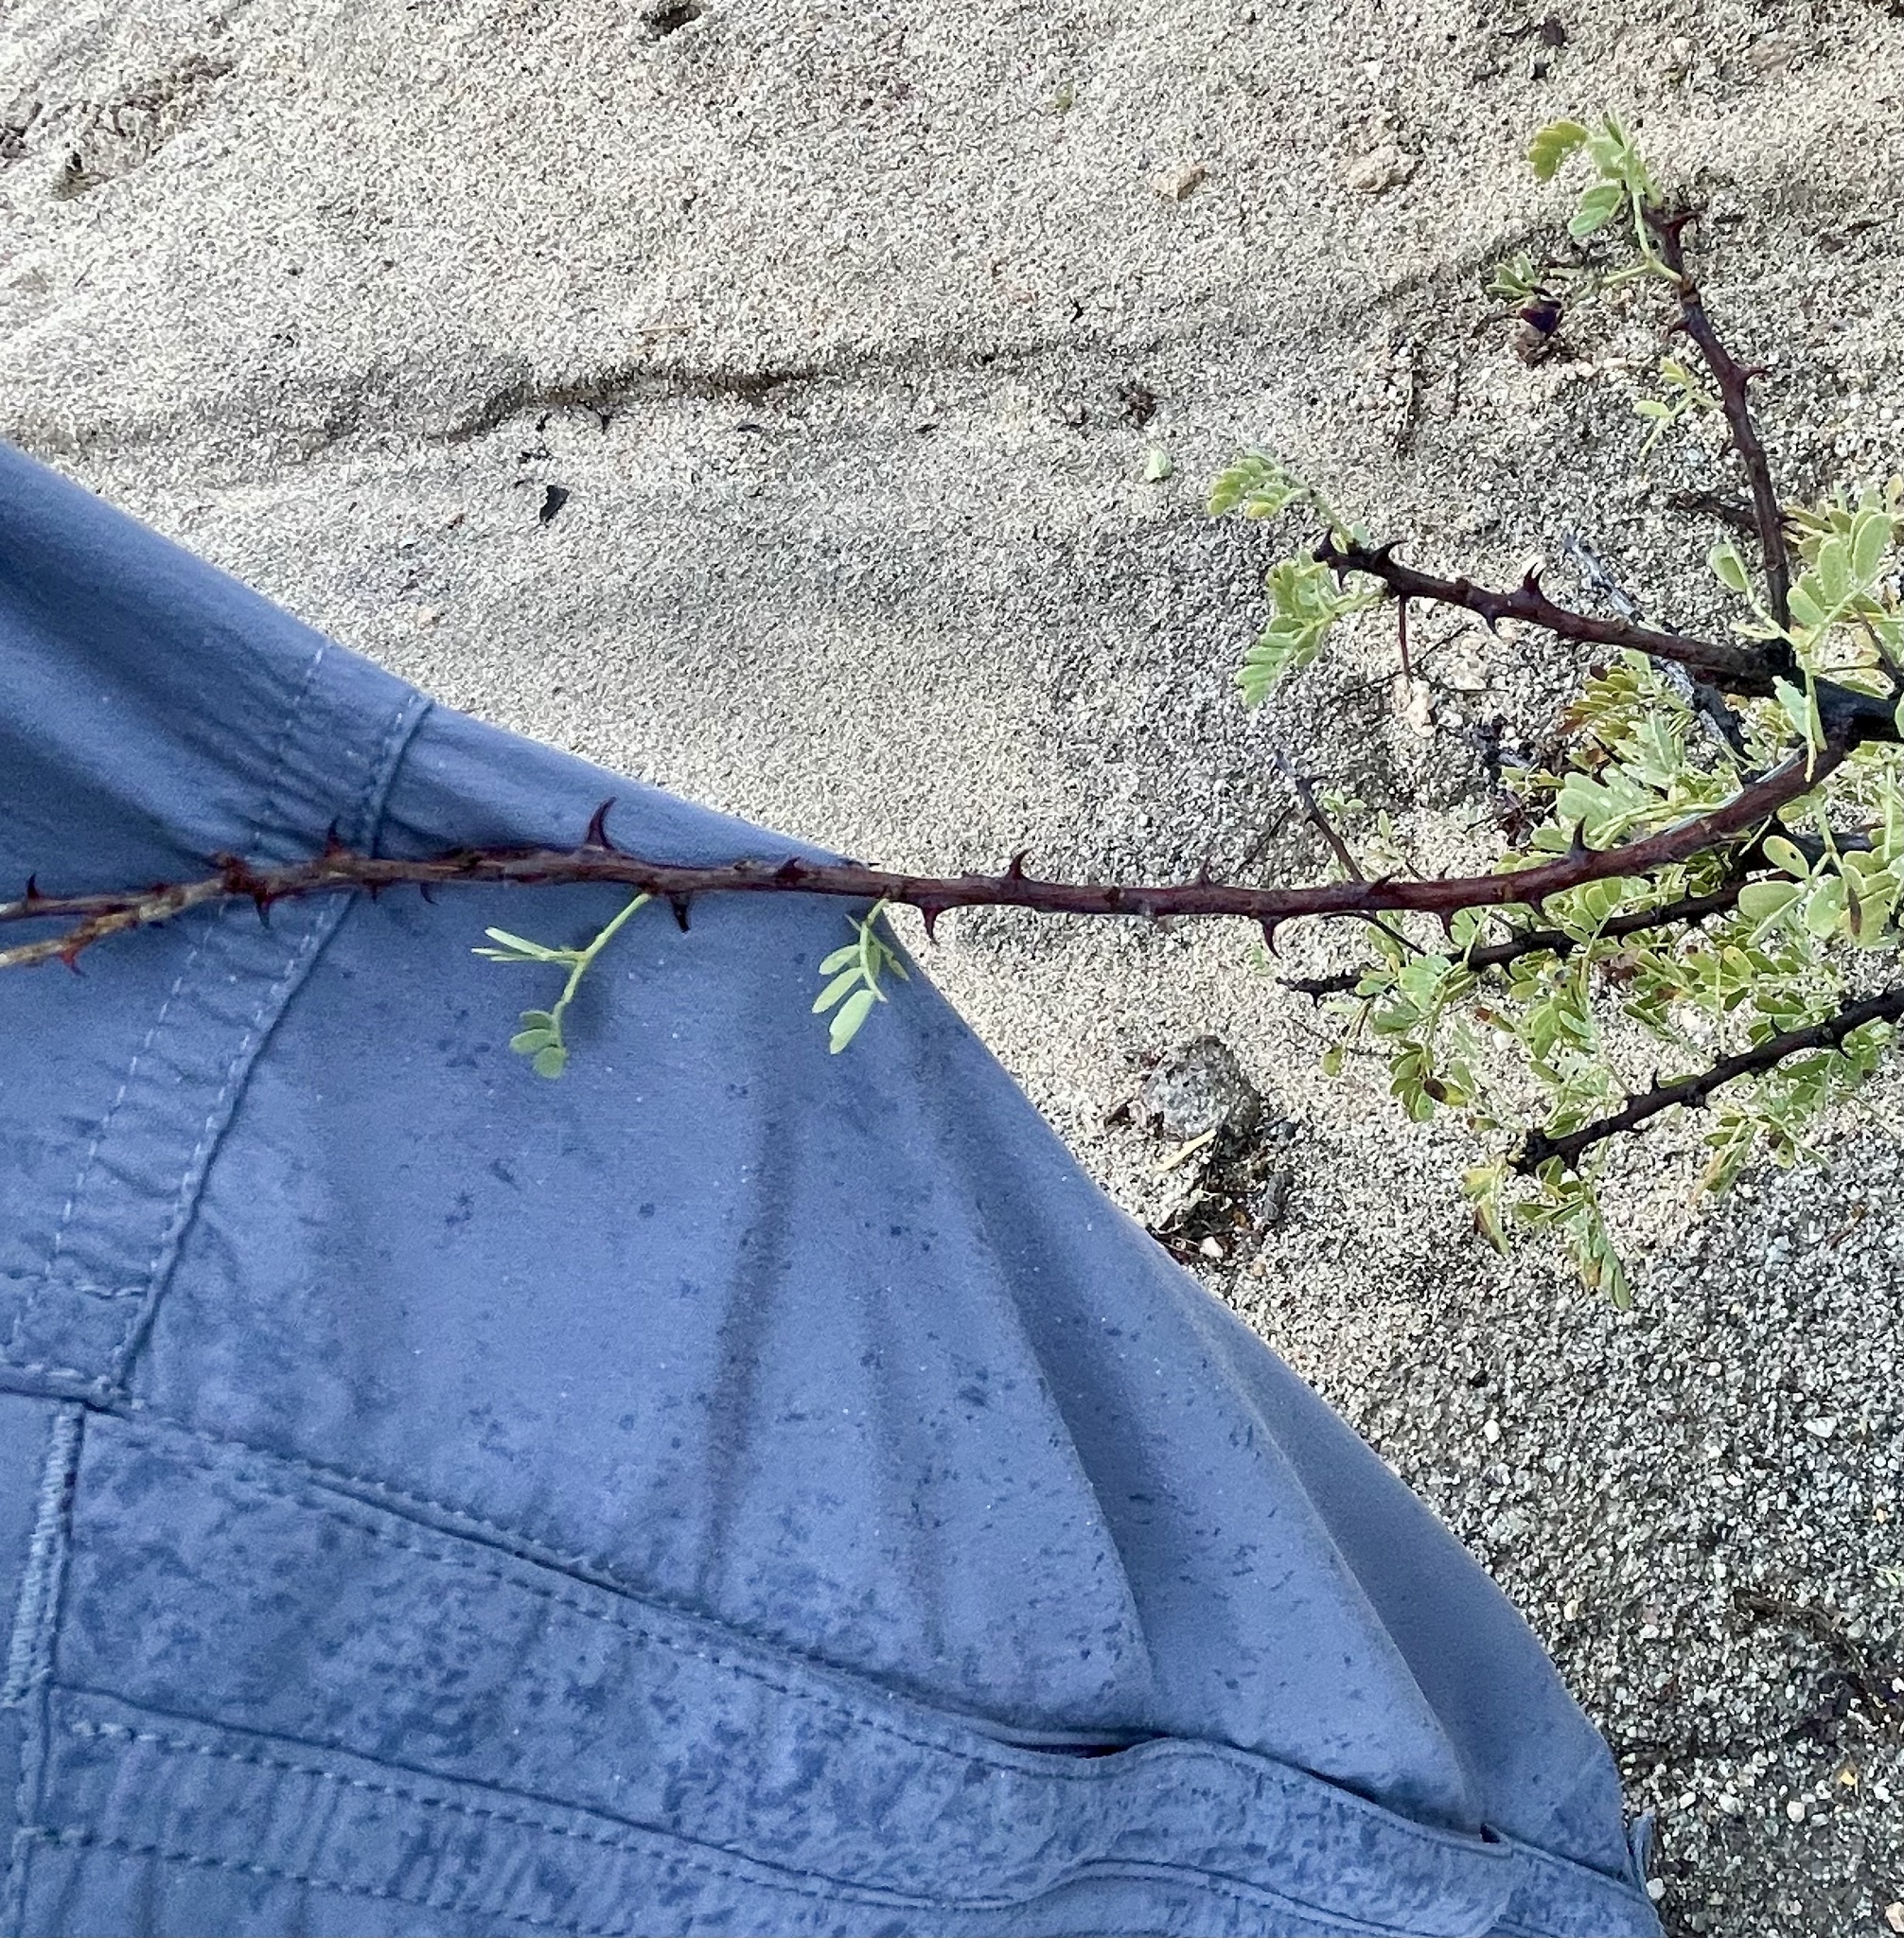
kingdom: Plantae
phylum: Tracheophyta
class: Magnoliopsida
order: Fabales
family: Fabaceae
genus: Senegalia
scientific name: Senegalia greggii
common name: Texas-mimosa
